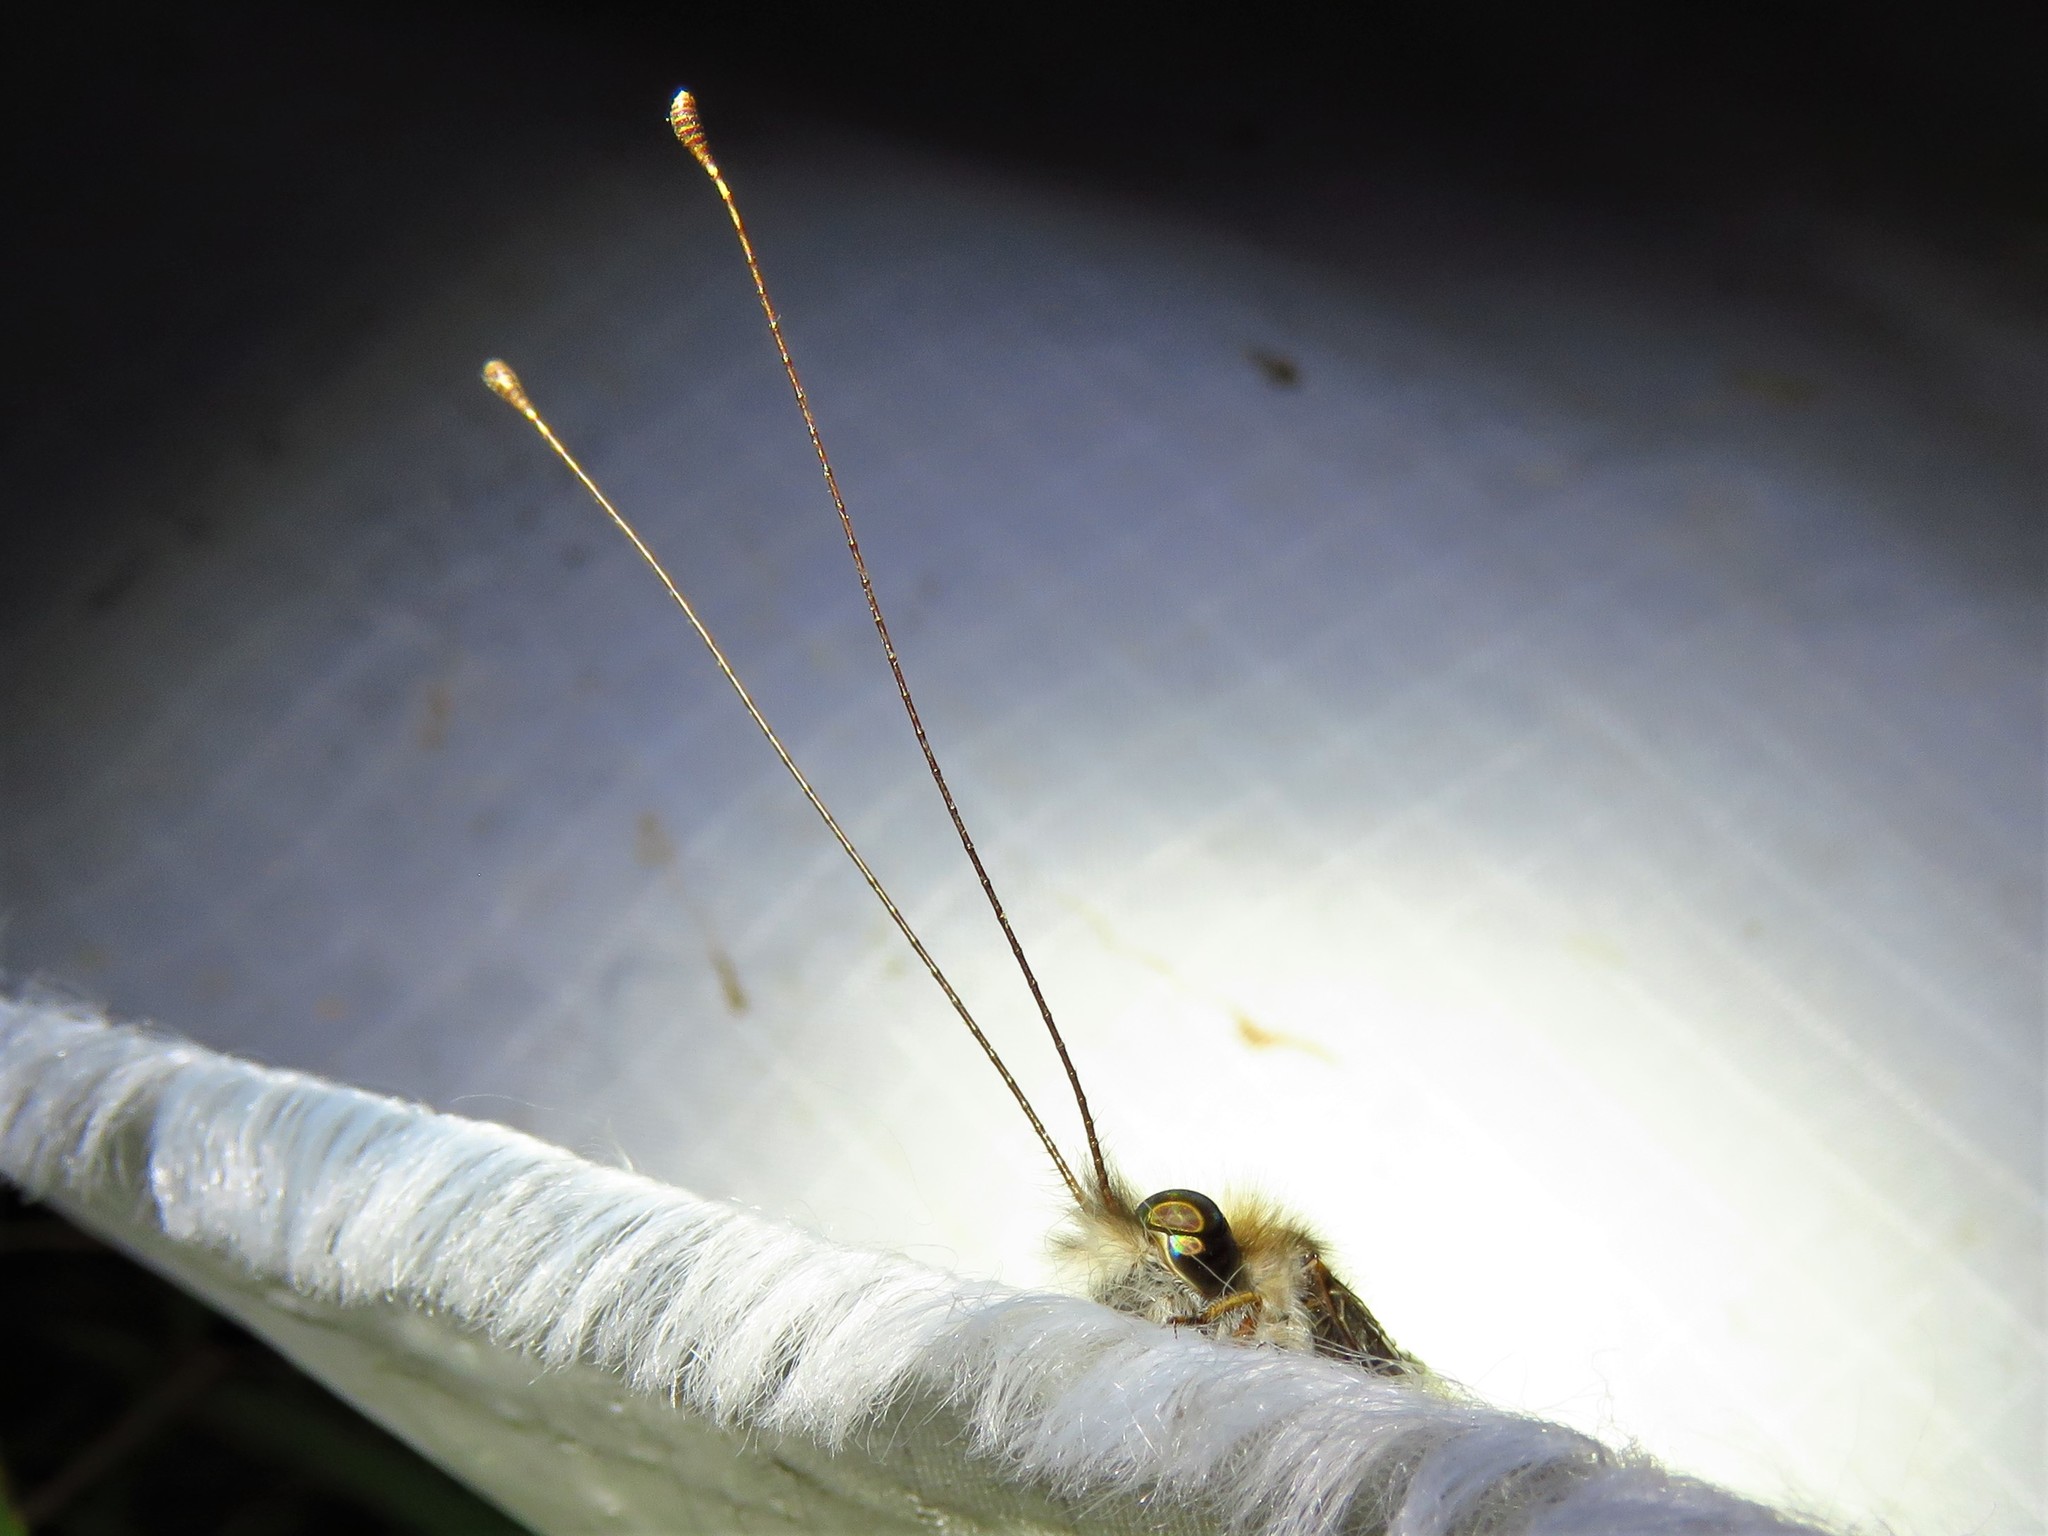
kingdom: Animalia
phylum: Arthropoda
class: Insecta
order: Neuroptera
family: Ascalaphidae
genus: Ululodes
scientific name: Ululodes macleayanus
